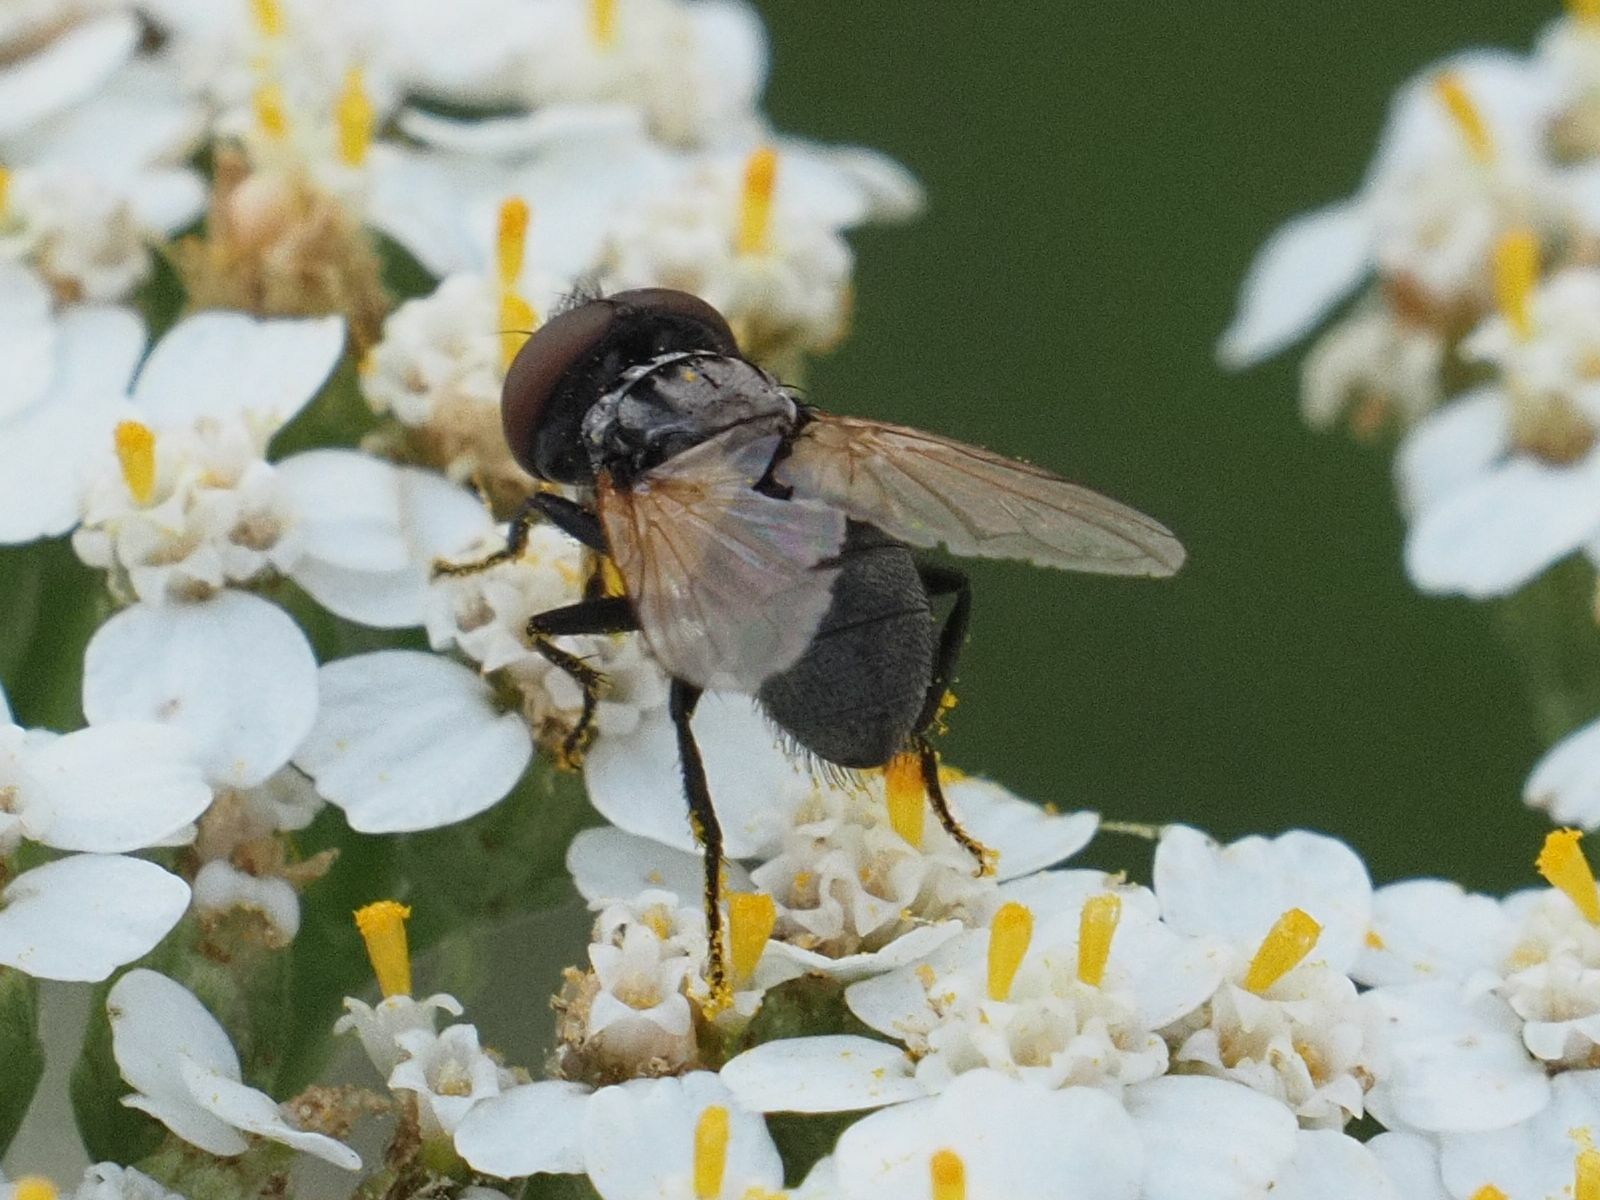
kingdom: Animalia
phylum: Arthropoda
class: Insecta
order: Diptera
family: Tachinidae
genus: Phasia
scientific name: Phasia obesa
